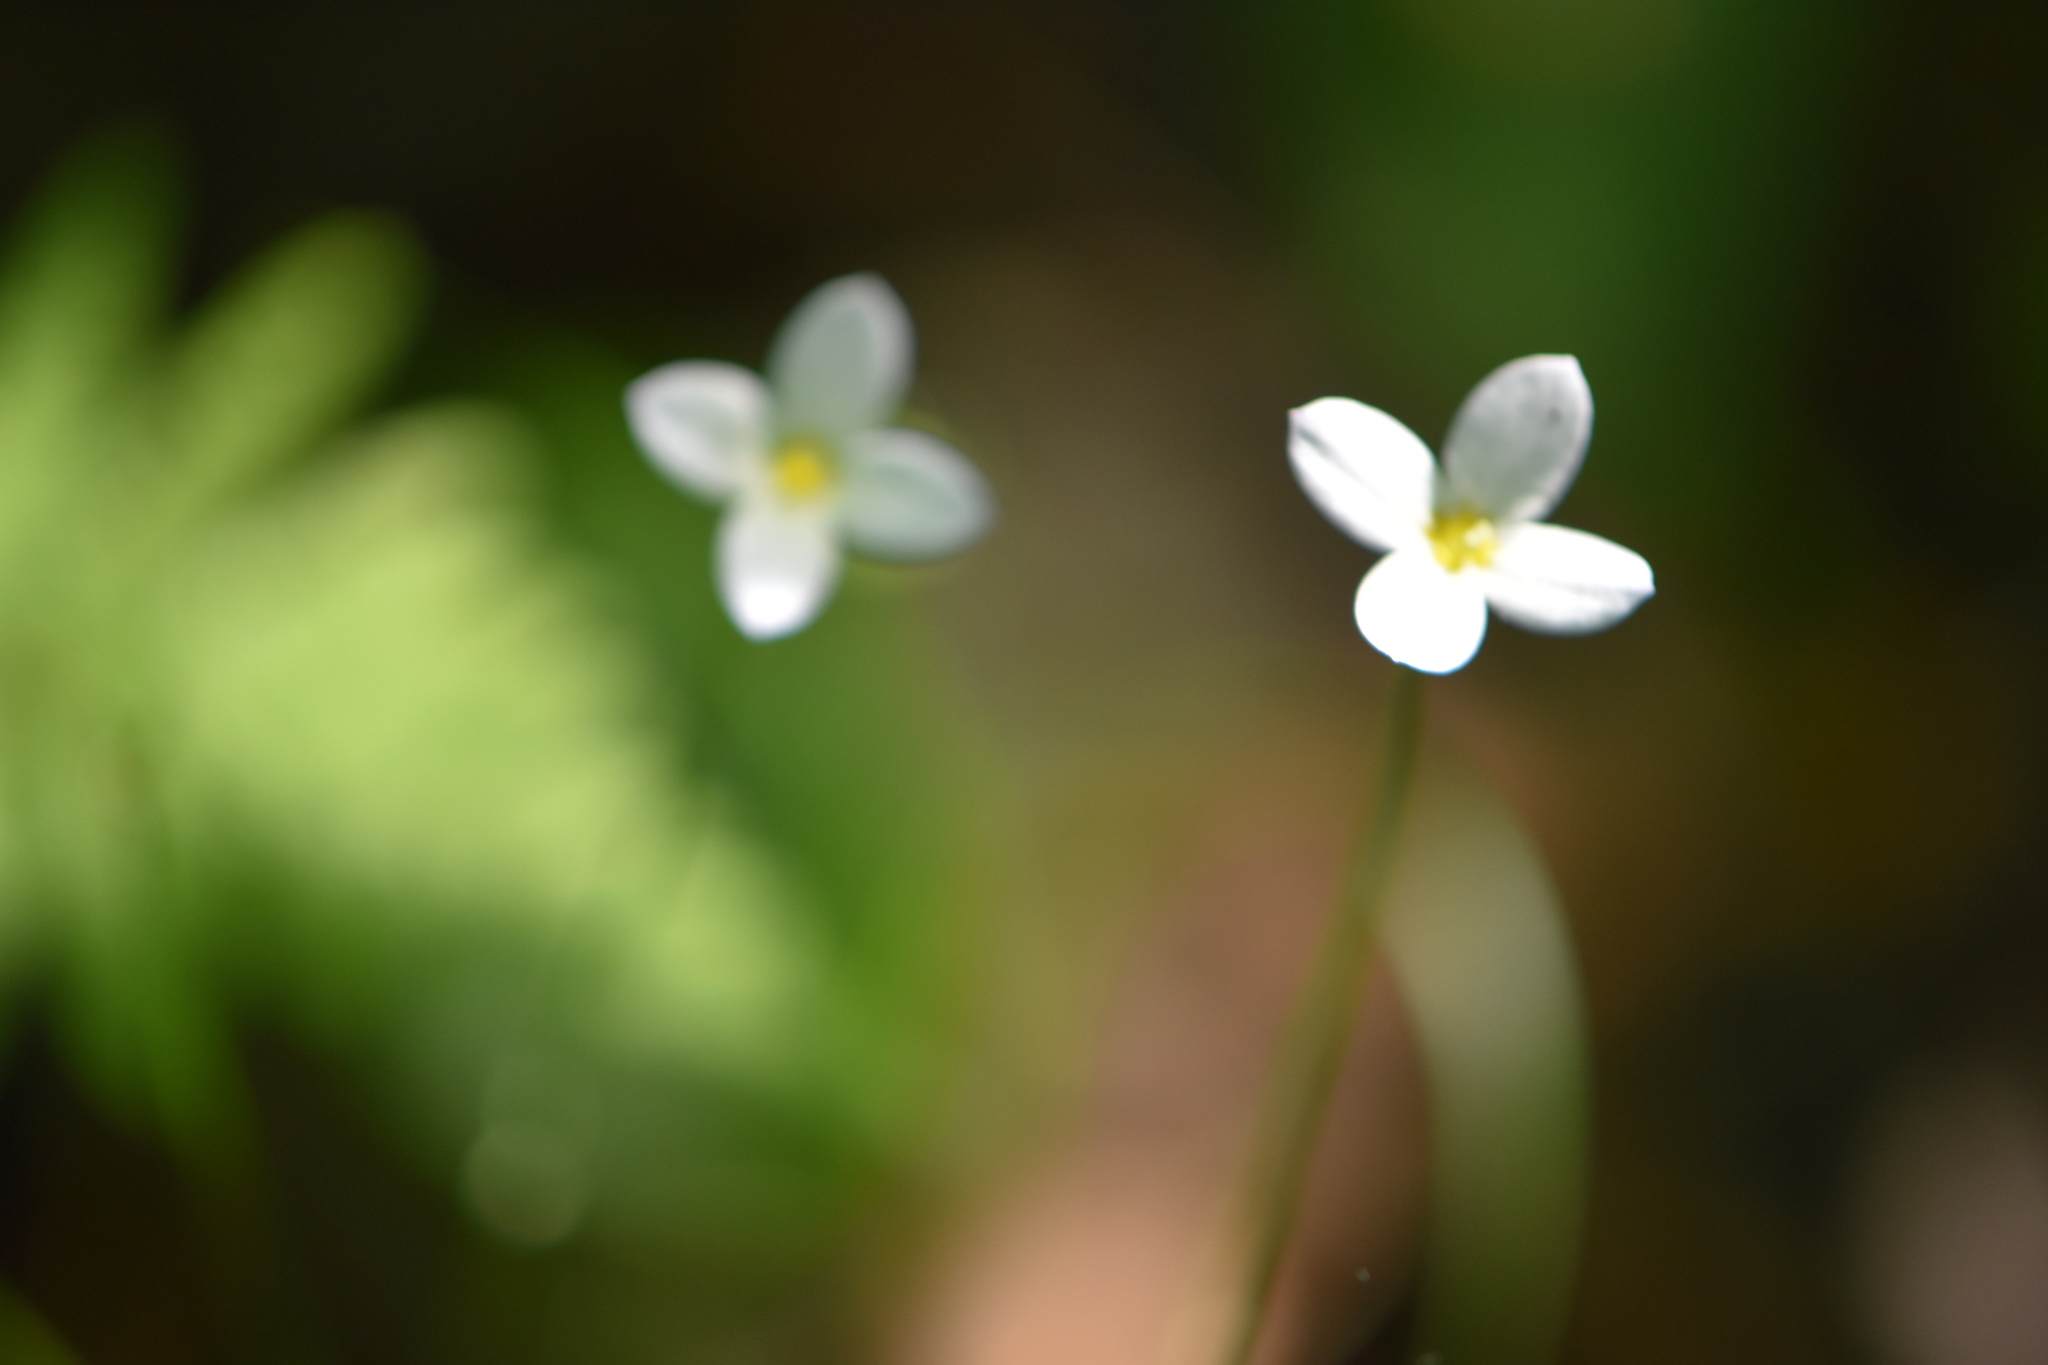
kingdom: Plantae
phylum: Tracheophyta
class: Magnoliopsida
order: Gentianales
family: Rubiaceae
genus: Houstonia
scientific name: Houstonia caerulea
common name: Bluets
